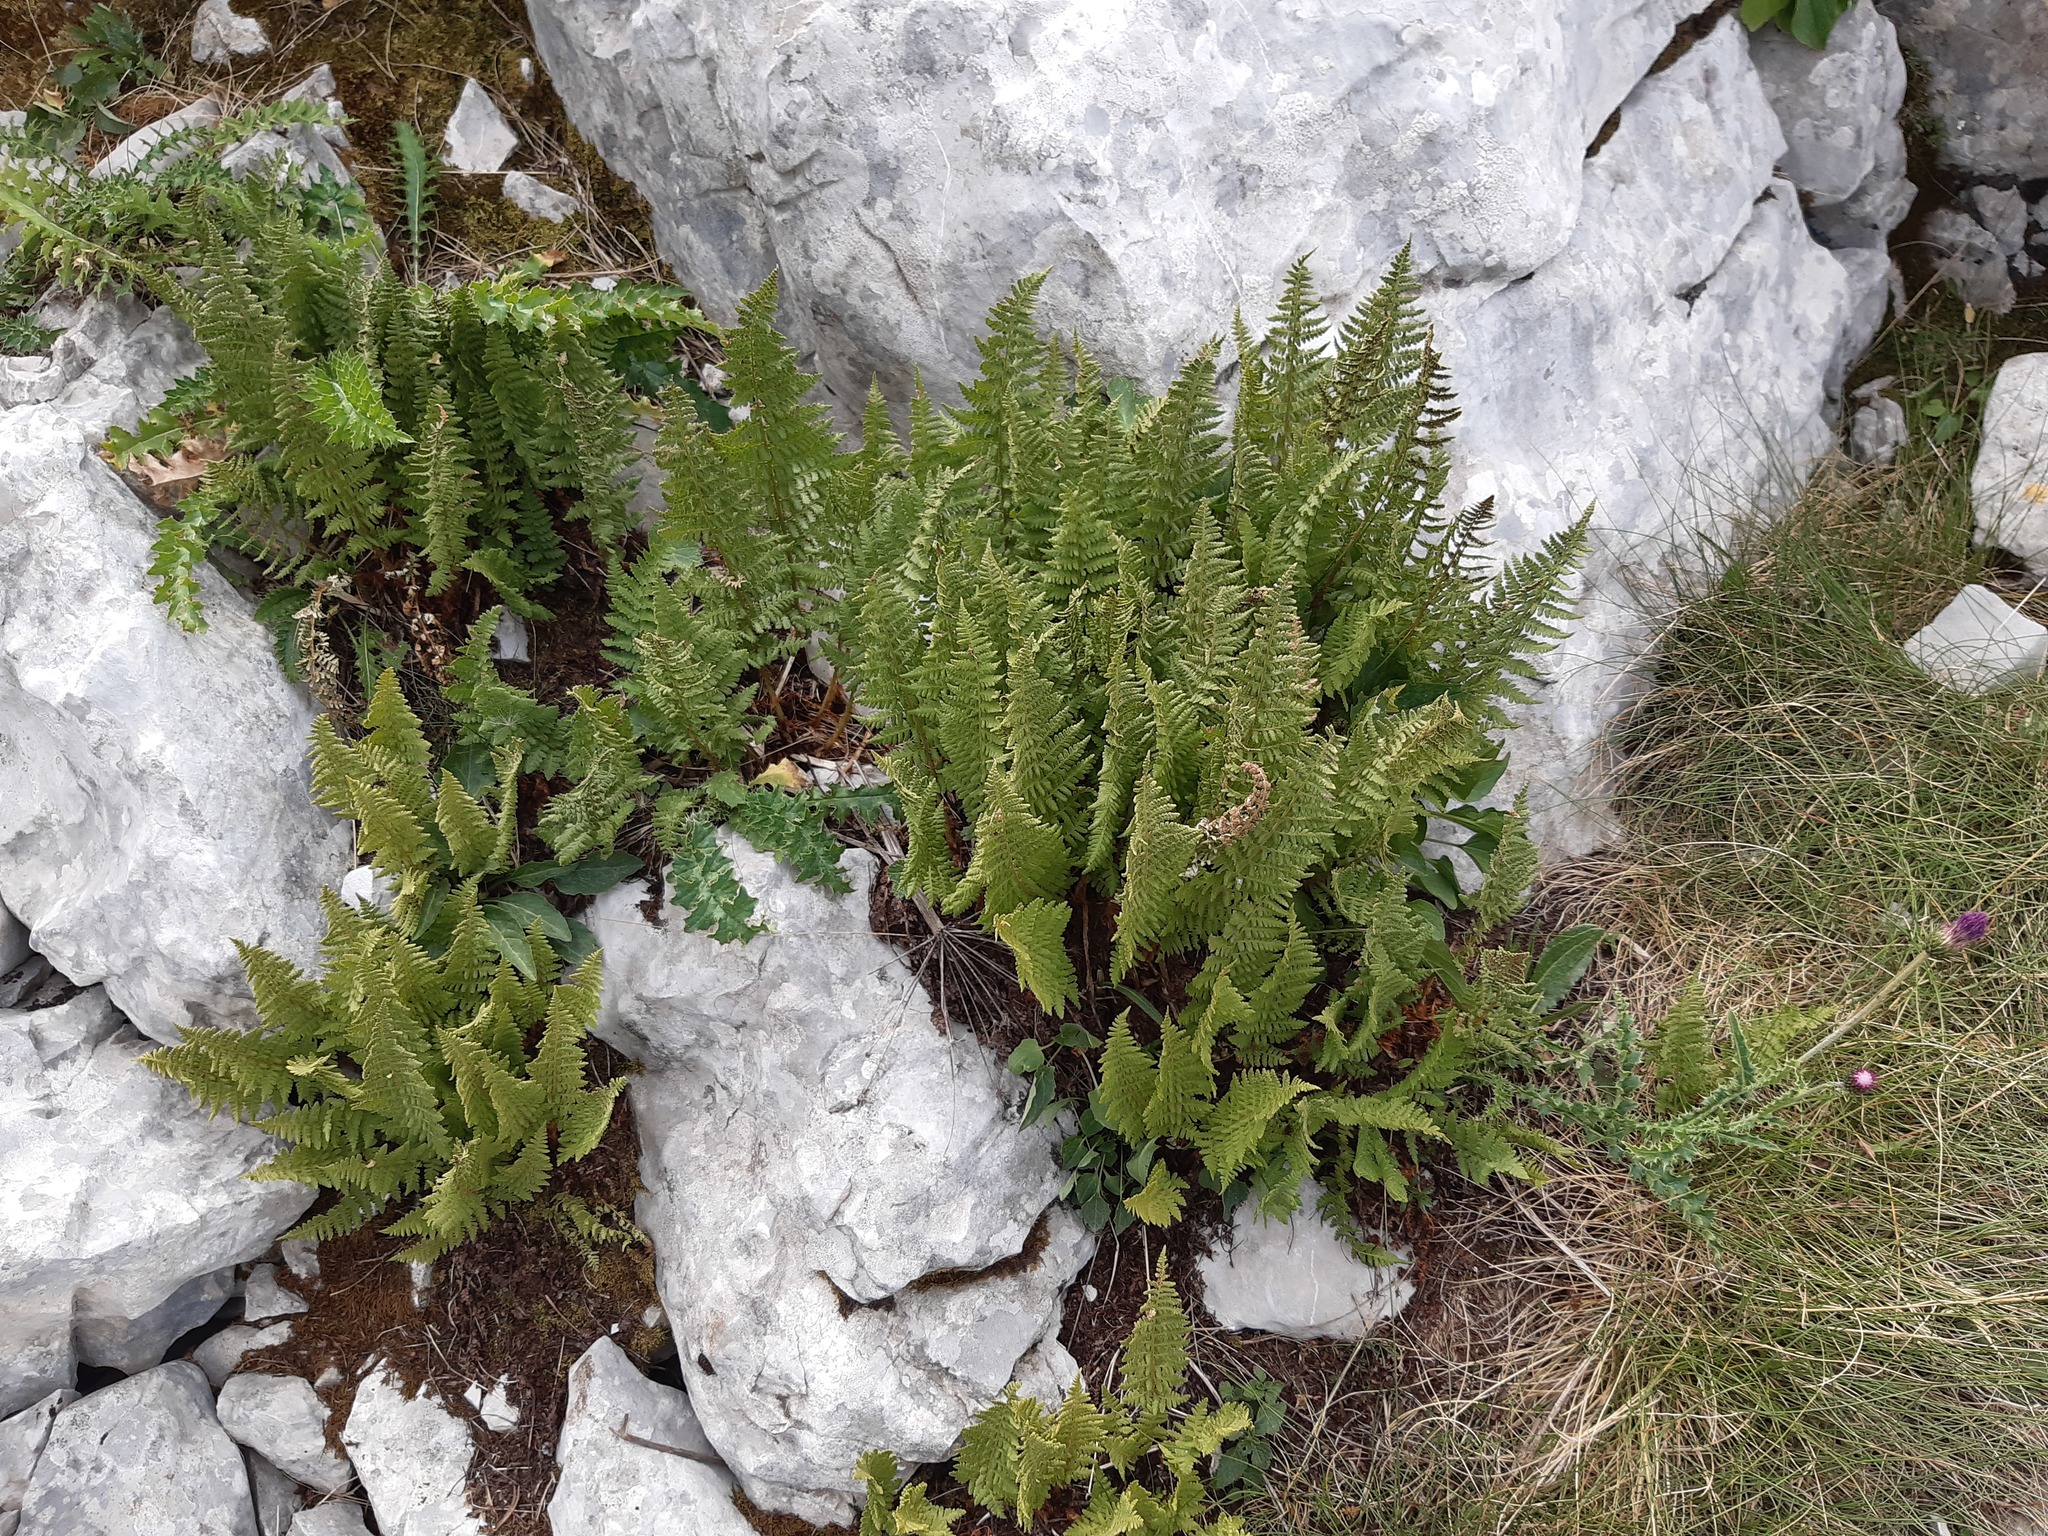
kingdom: Plantae
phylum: Tracheophyta
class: Polypodiopsida
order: Polypodiales
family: Dryopteridaceae
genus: Dryopteris
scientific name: Dryopteris villarii
